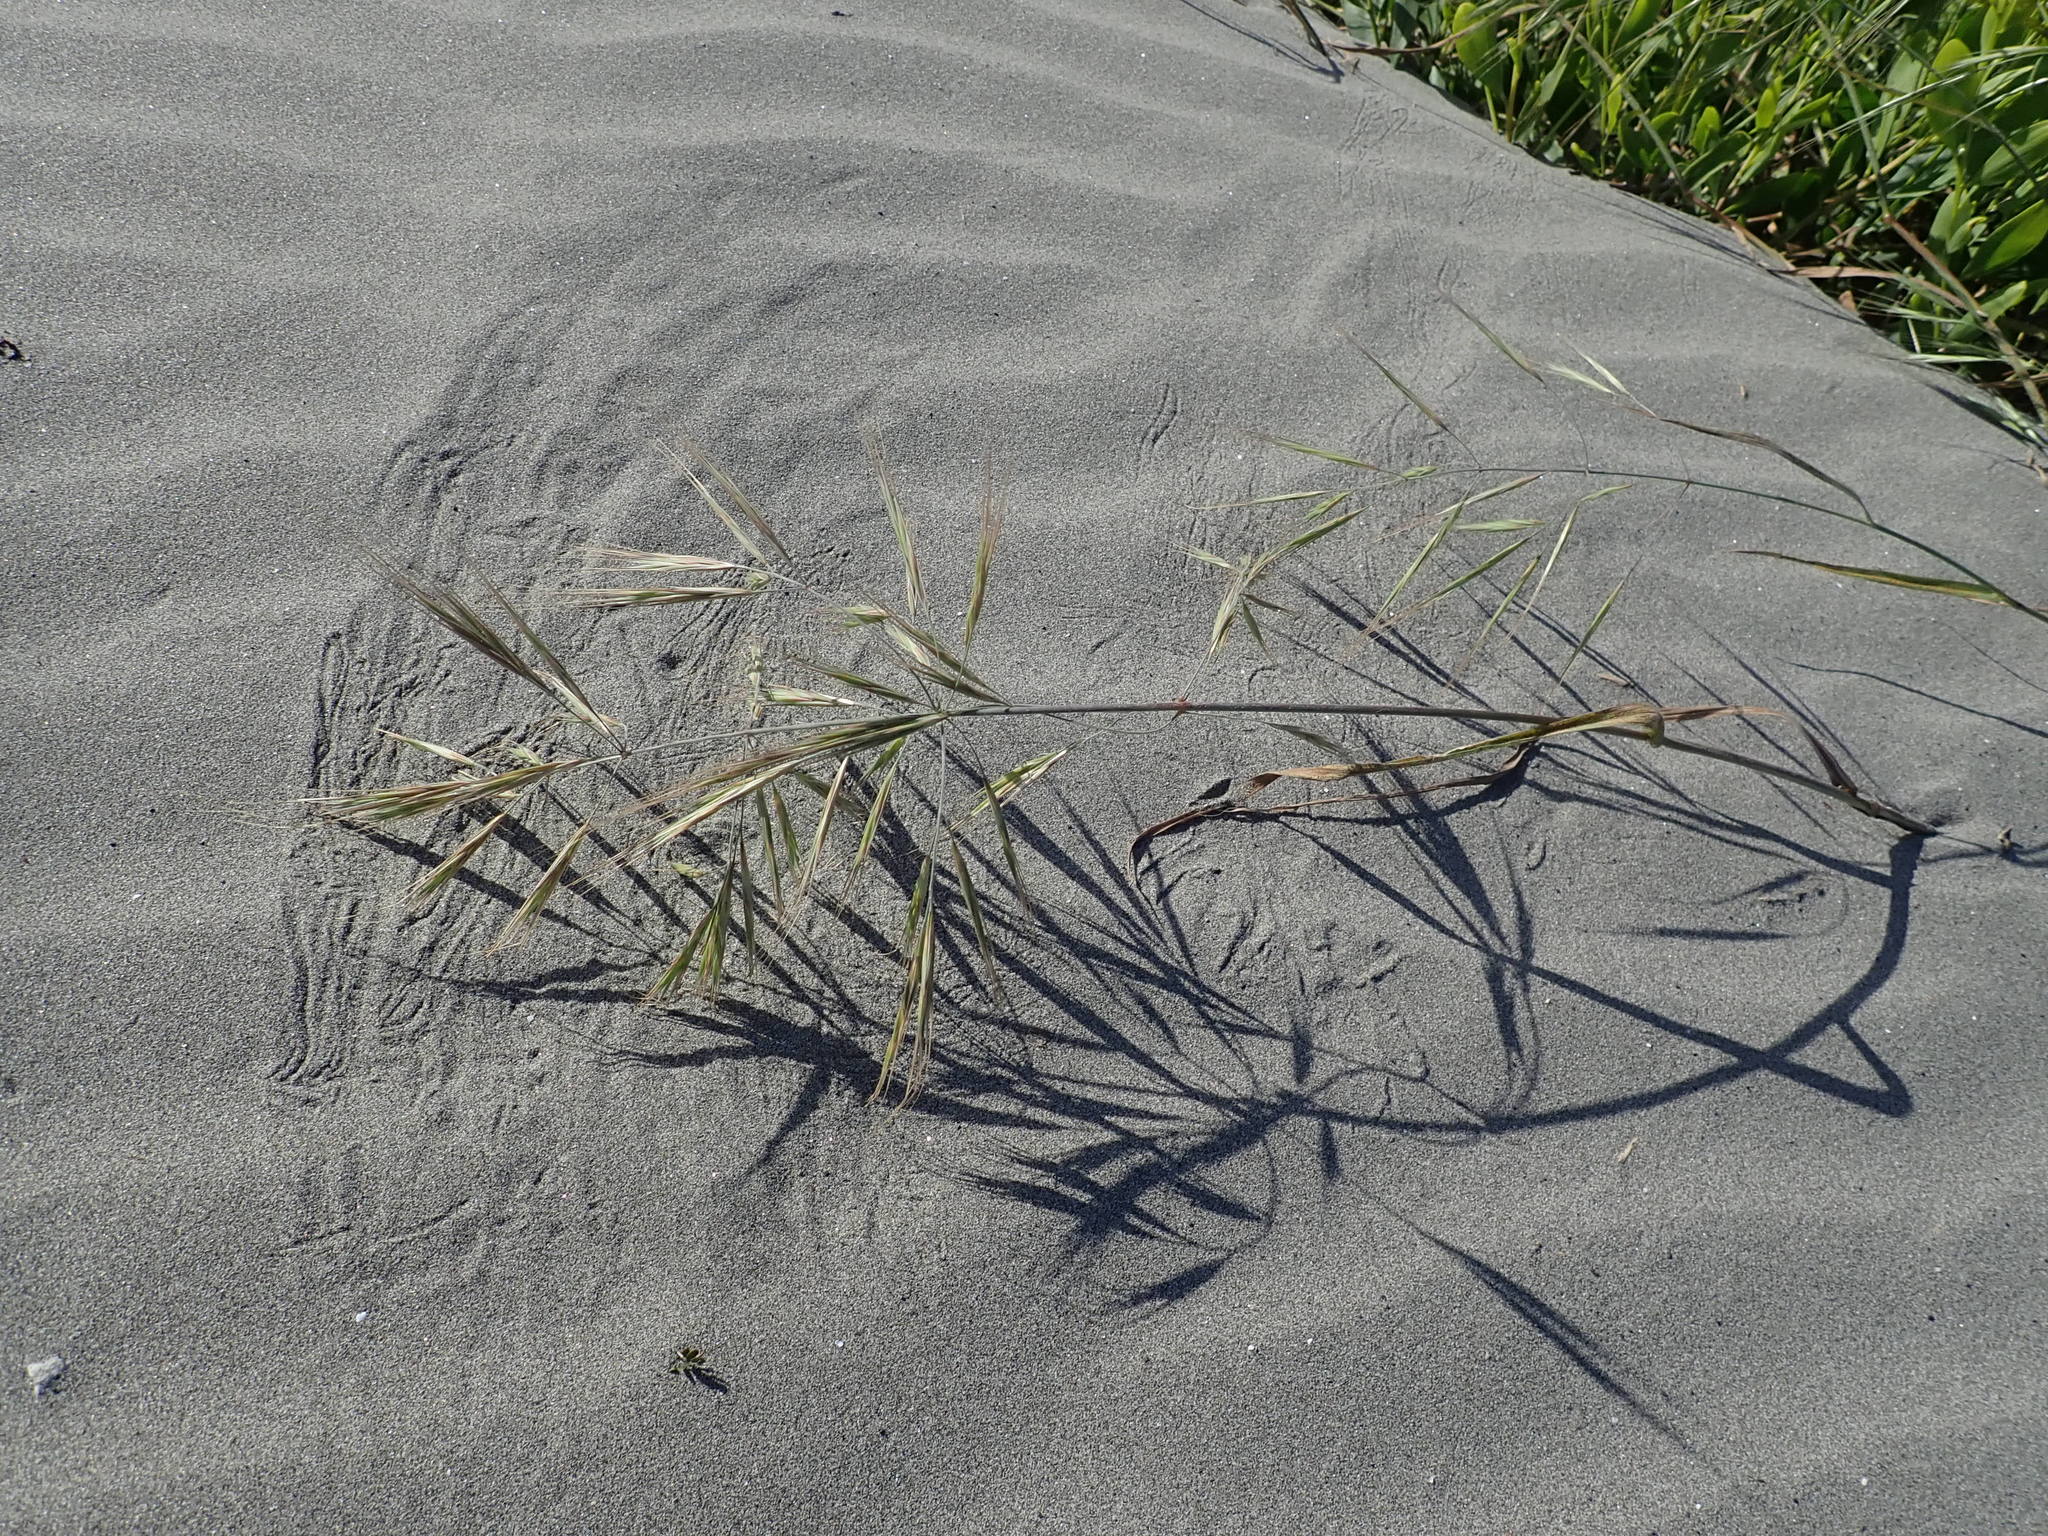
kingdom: Plantae
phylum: Tracheophyta
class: Liliopsida
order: Poales
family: Poaceae
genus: Bromus
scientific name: Bromus diandrus
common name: Ripgut brome
